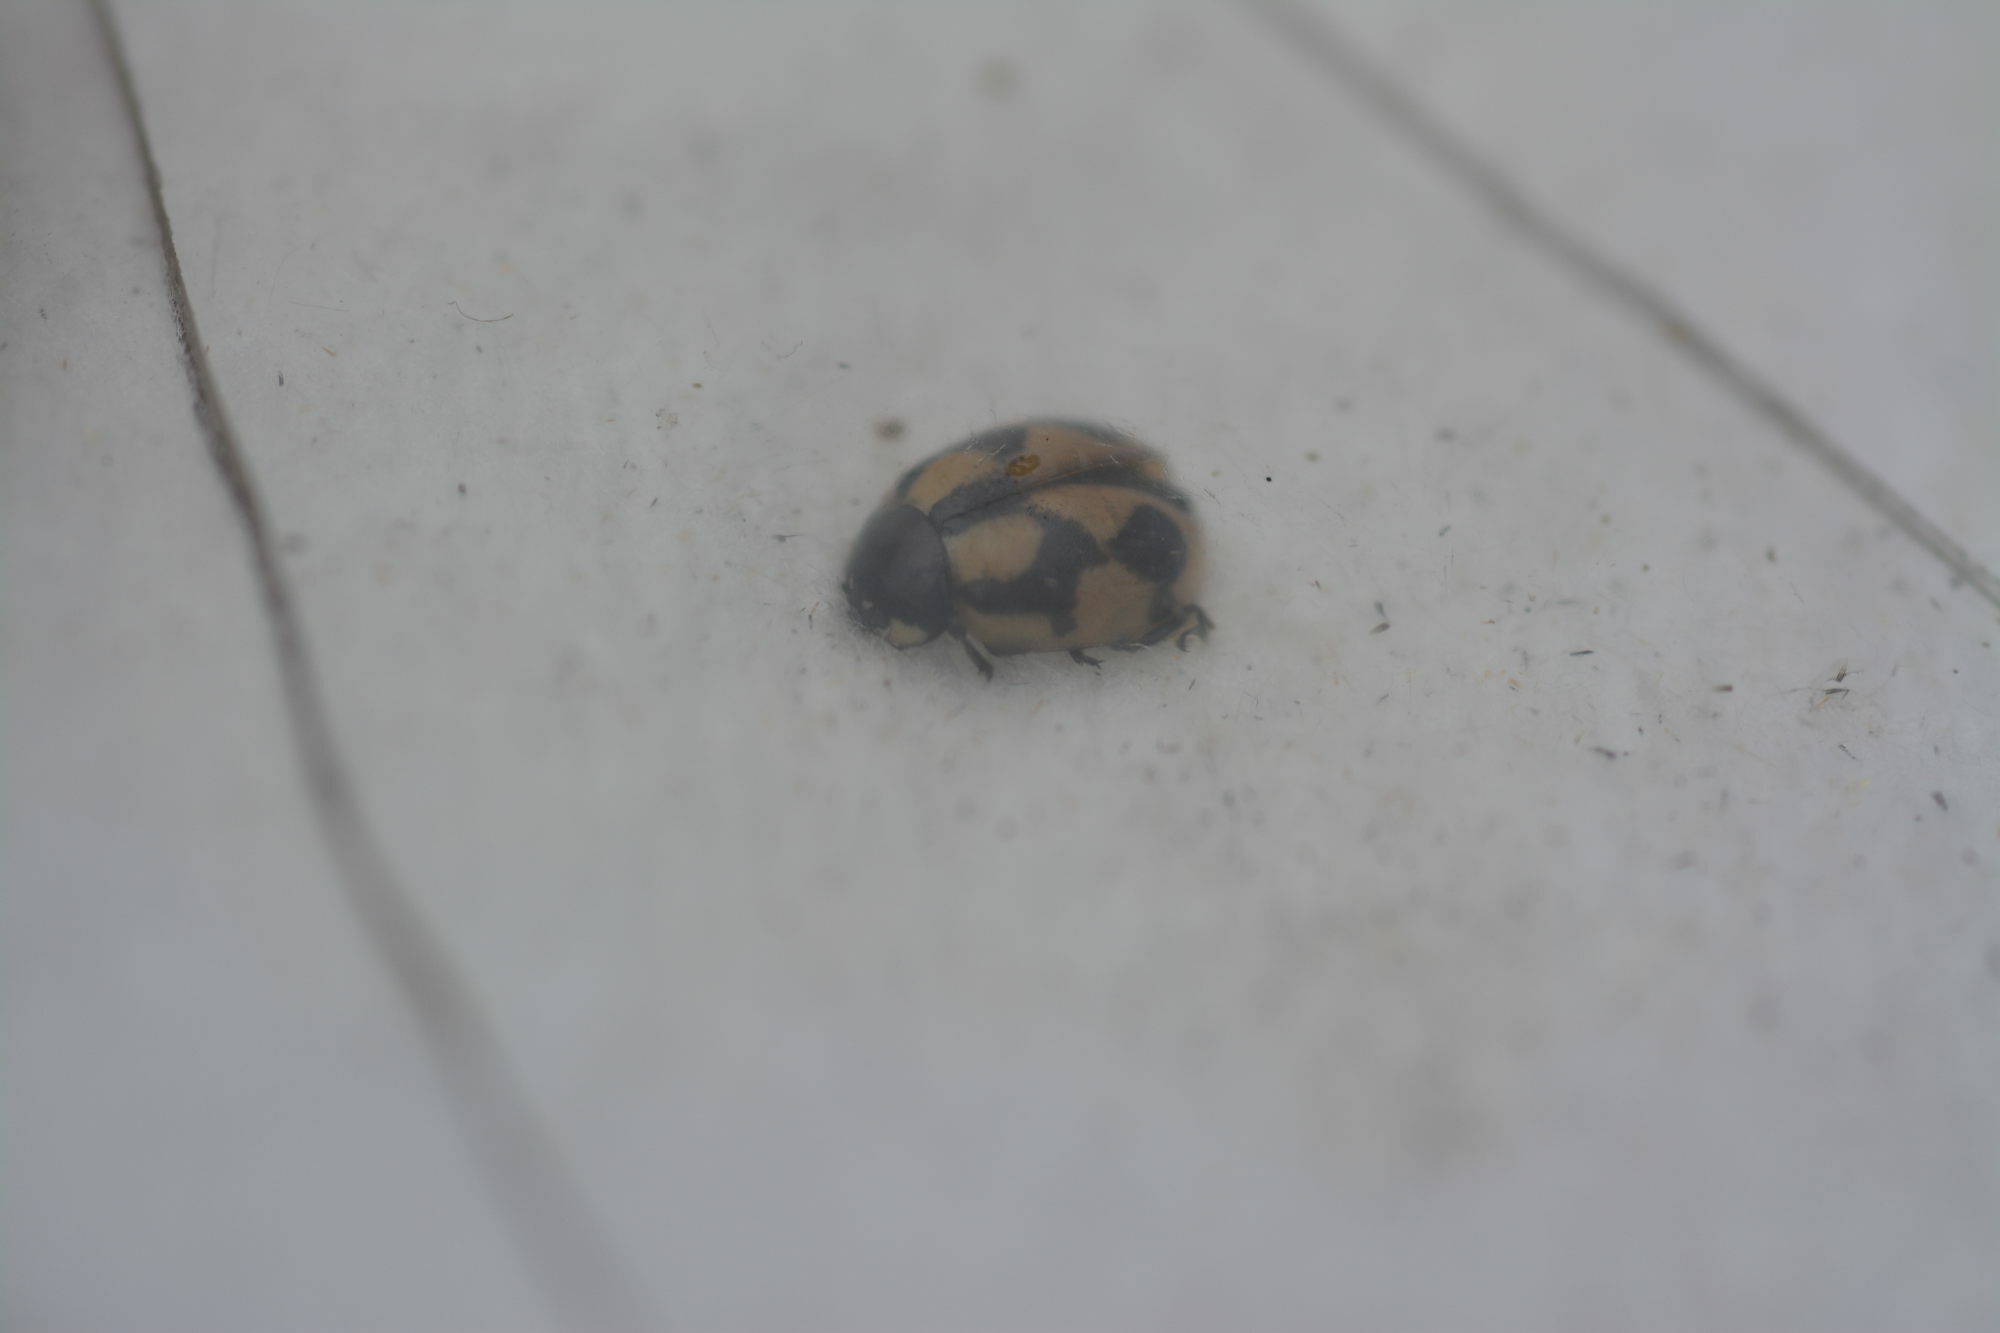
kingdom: Animalia
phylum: Arthropoda
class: Insecta
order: Coleoptera
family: Coccinellidae
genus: Coccinella
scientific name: Coccinella hieroglyphica
